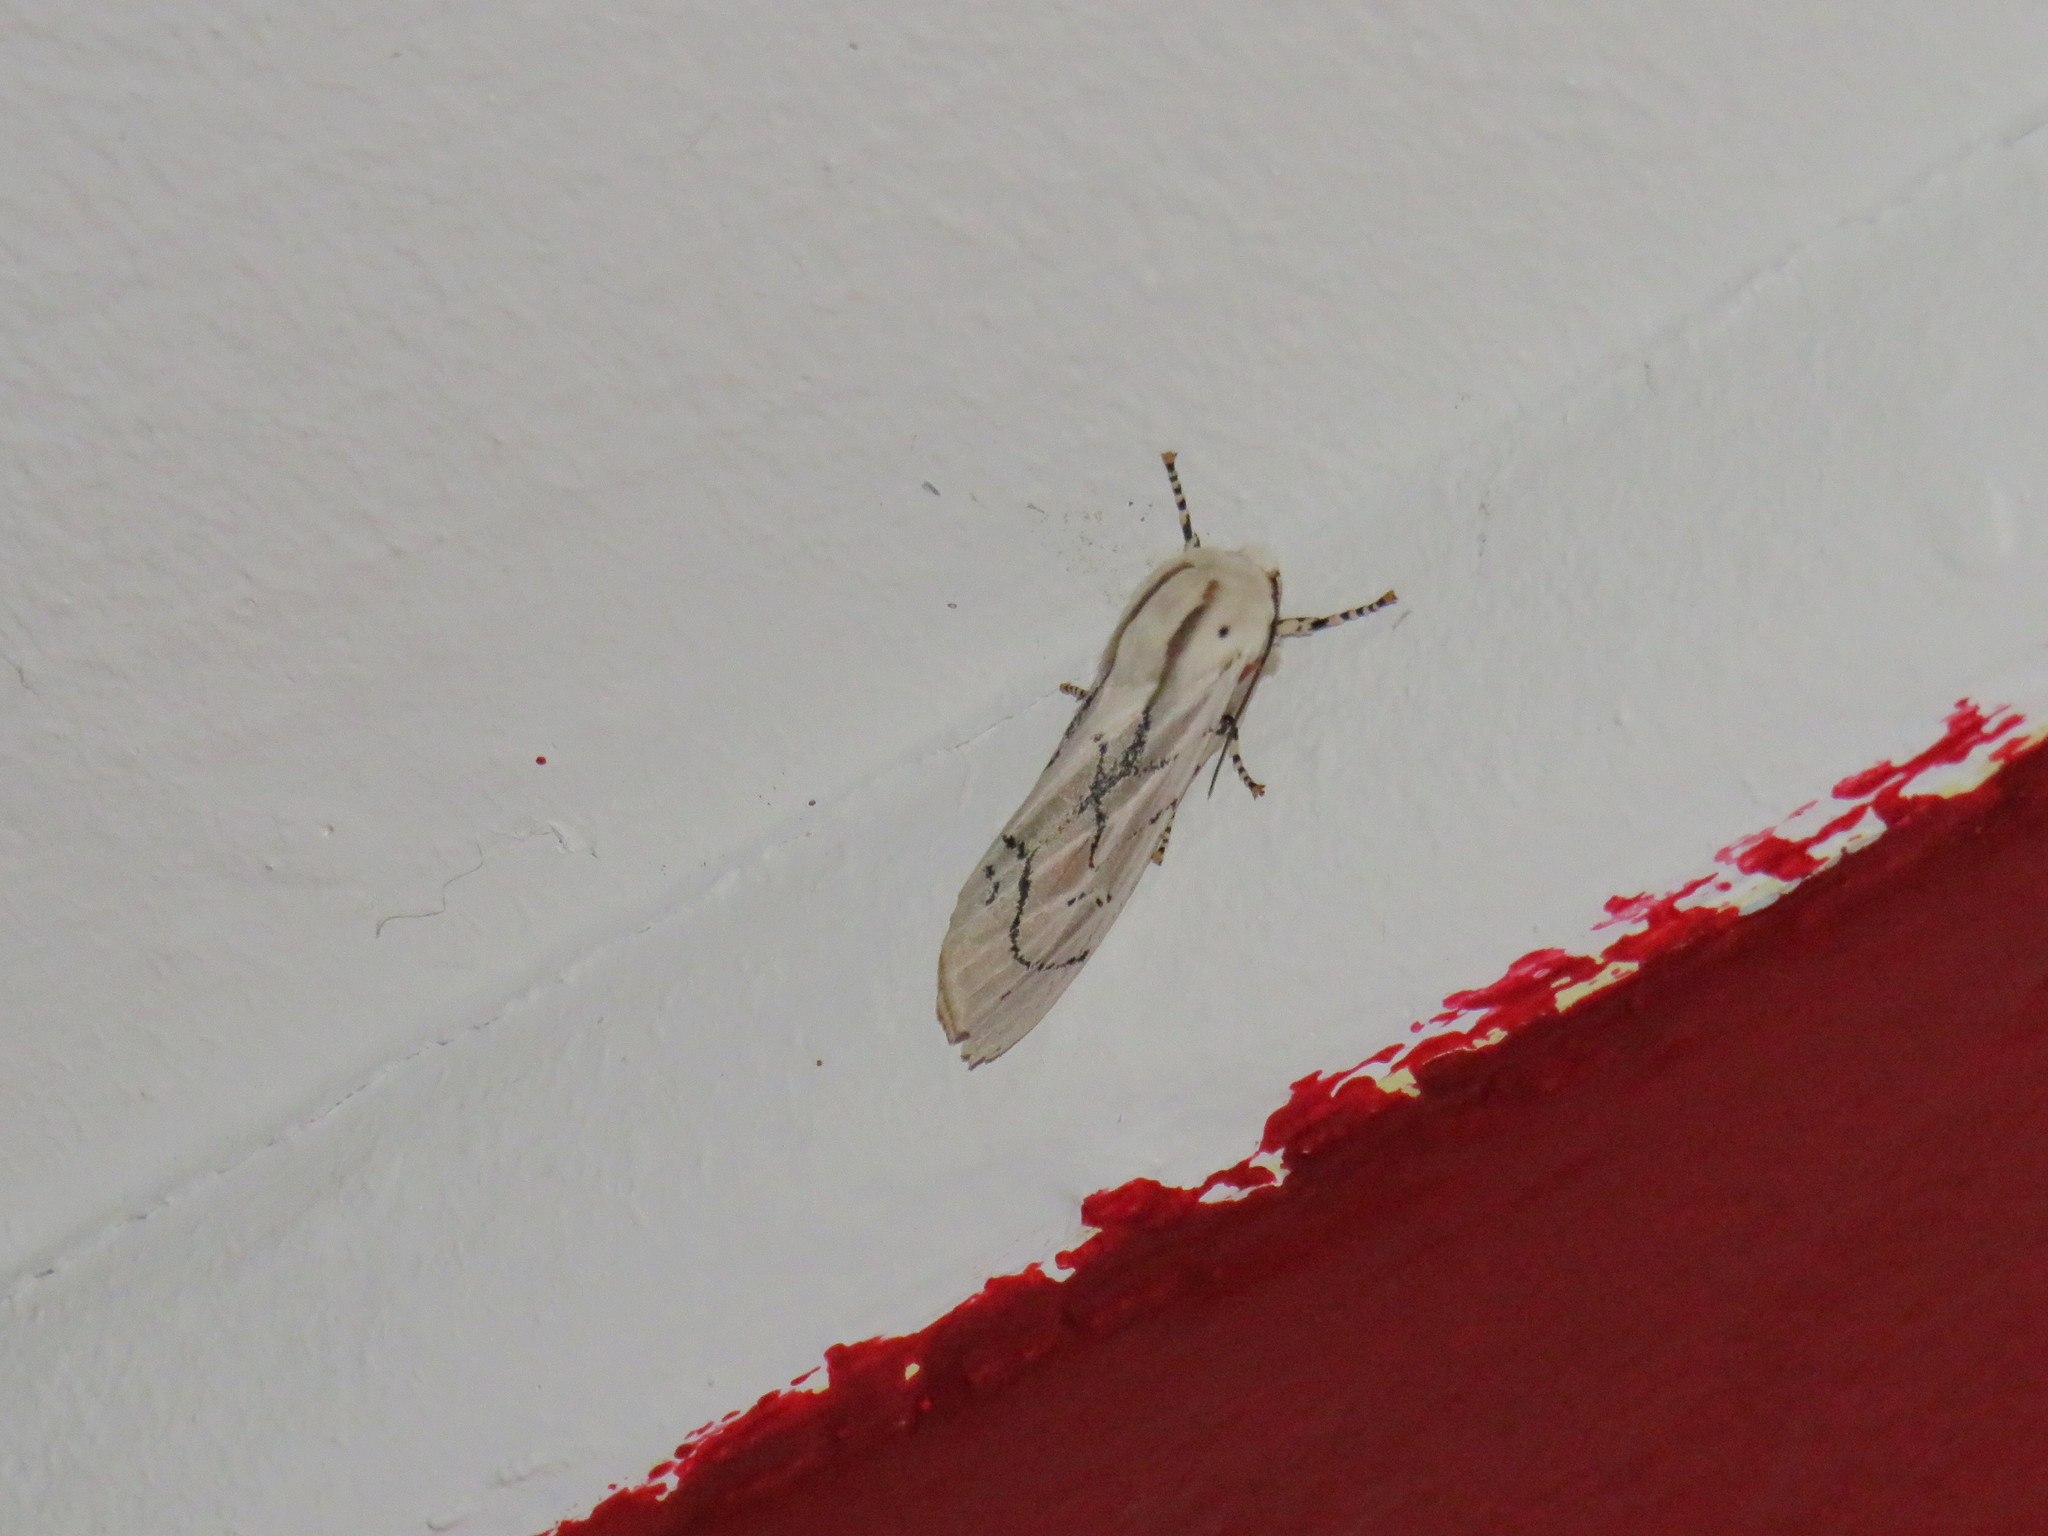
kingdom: Animalia
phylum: Arthropoda
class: Insecta
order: Lepidoptera
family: Erebidae
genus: Rhodogastria
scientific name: Rhodogastria amasis
